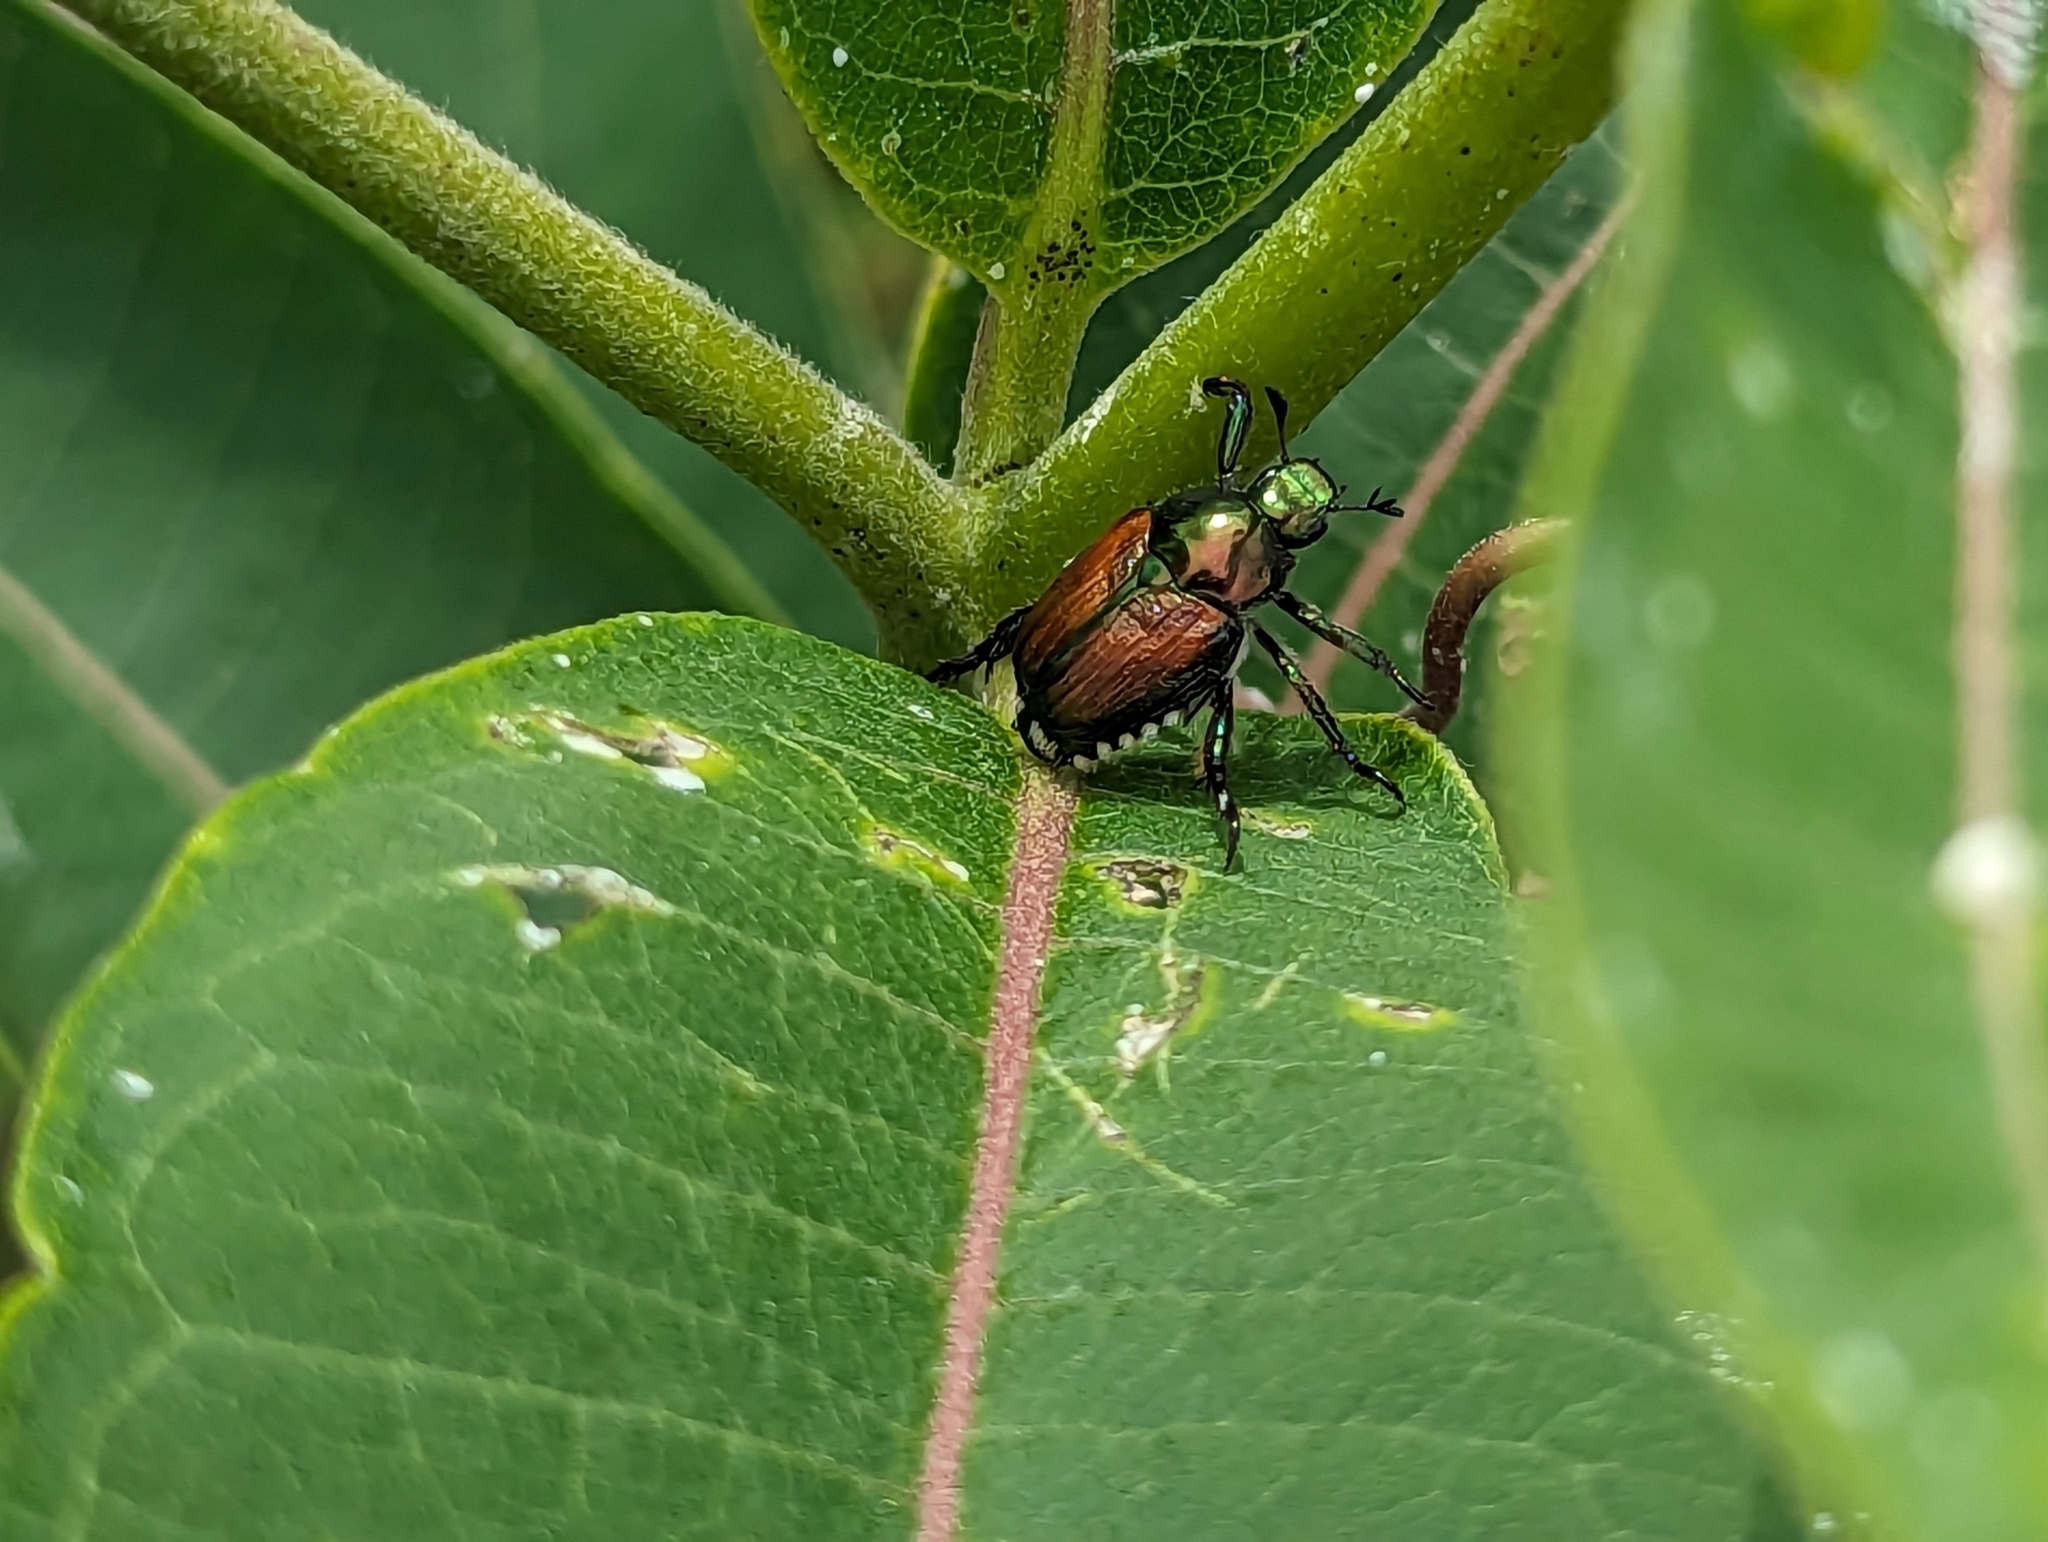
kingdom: Animalia
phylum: Arthropoda
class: Insecta
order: Coleoptera
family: Scarabaeidae
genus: Popillia
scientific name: Popillia japonica
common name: Japanese beetle
